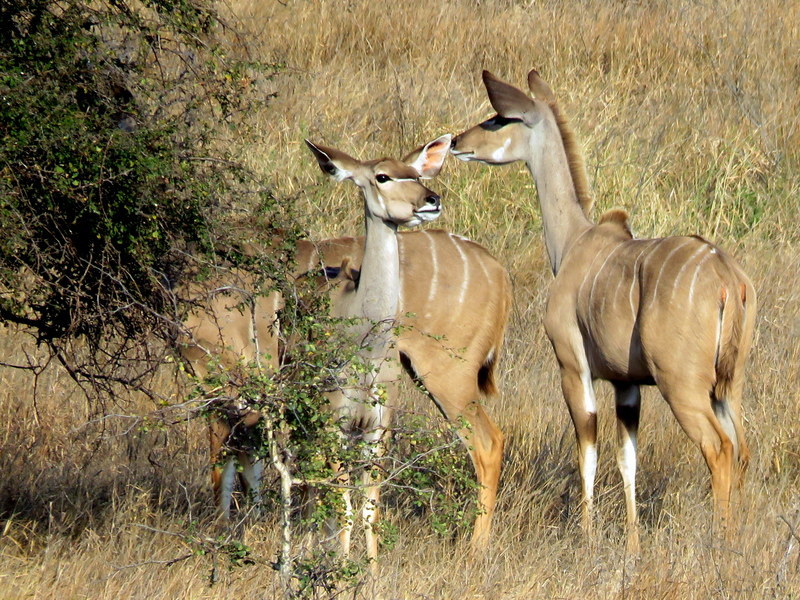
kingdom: Animalia
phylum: Chordata
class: Mammalia
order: Artiodactyla
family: Bovidae
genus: Tragelaphus
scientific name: Tragelaphus strepsiceros
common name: Greater kudu
